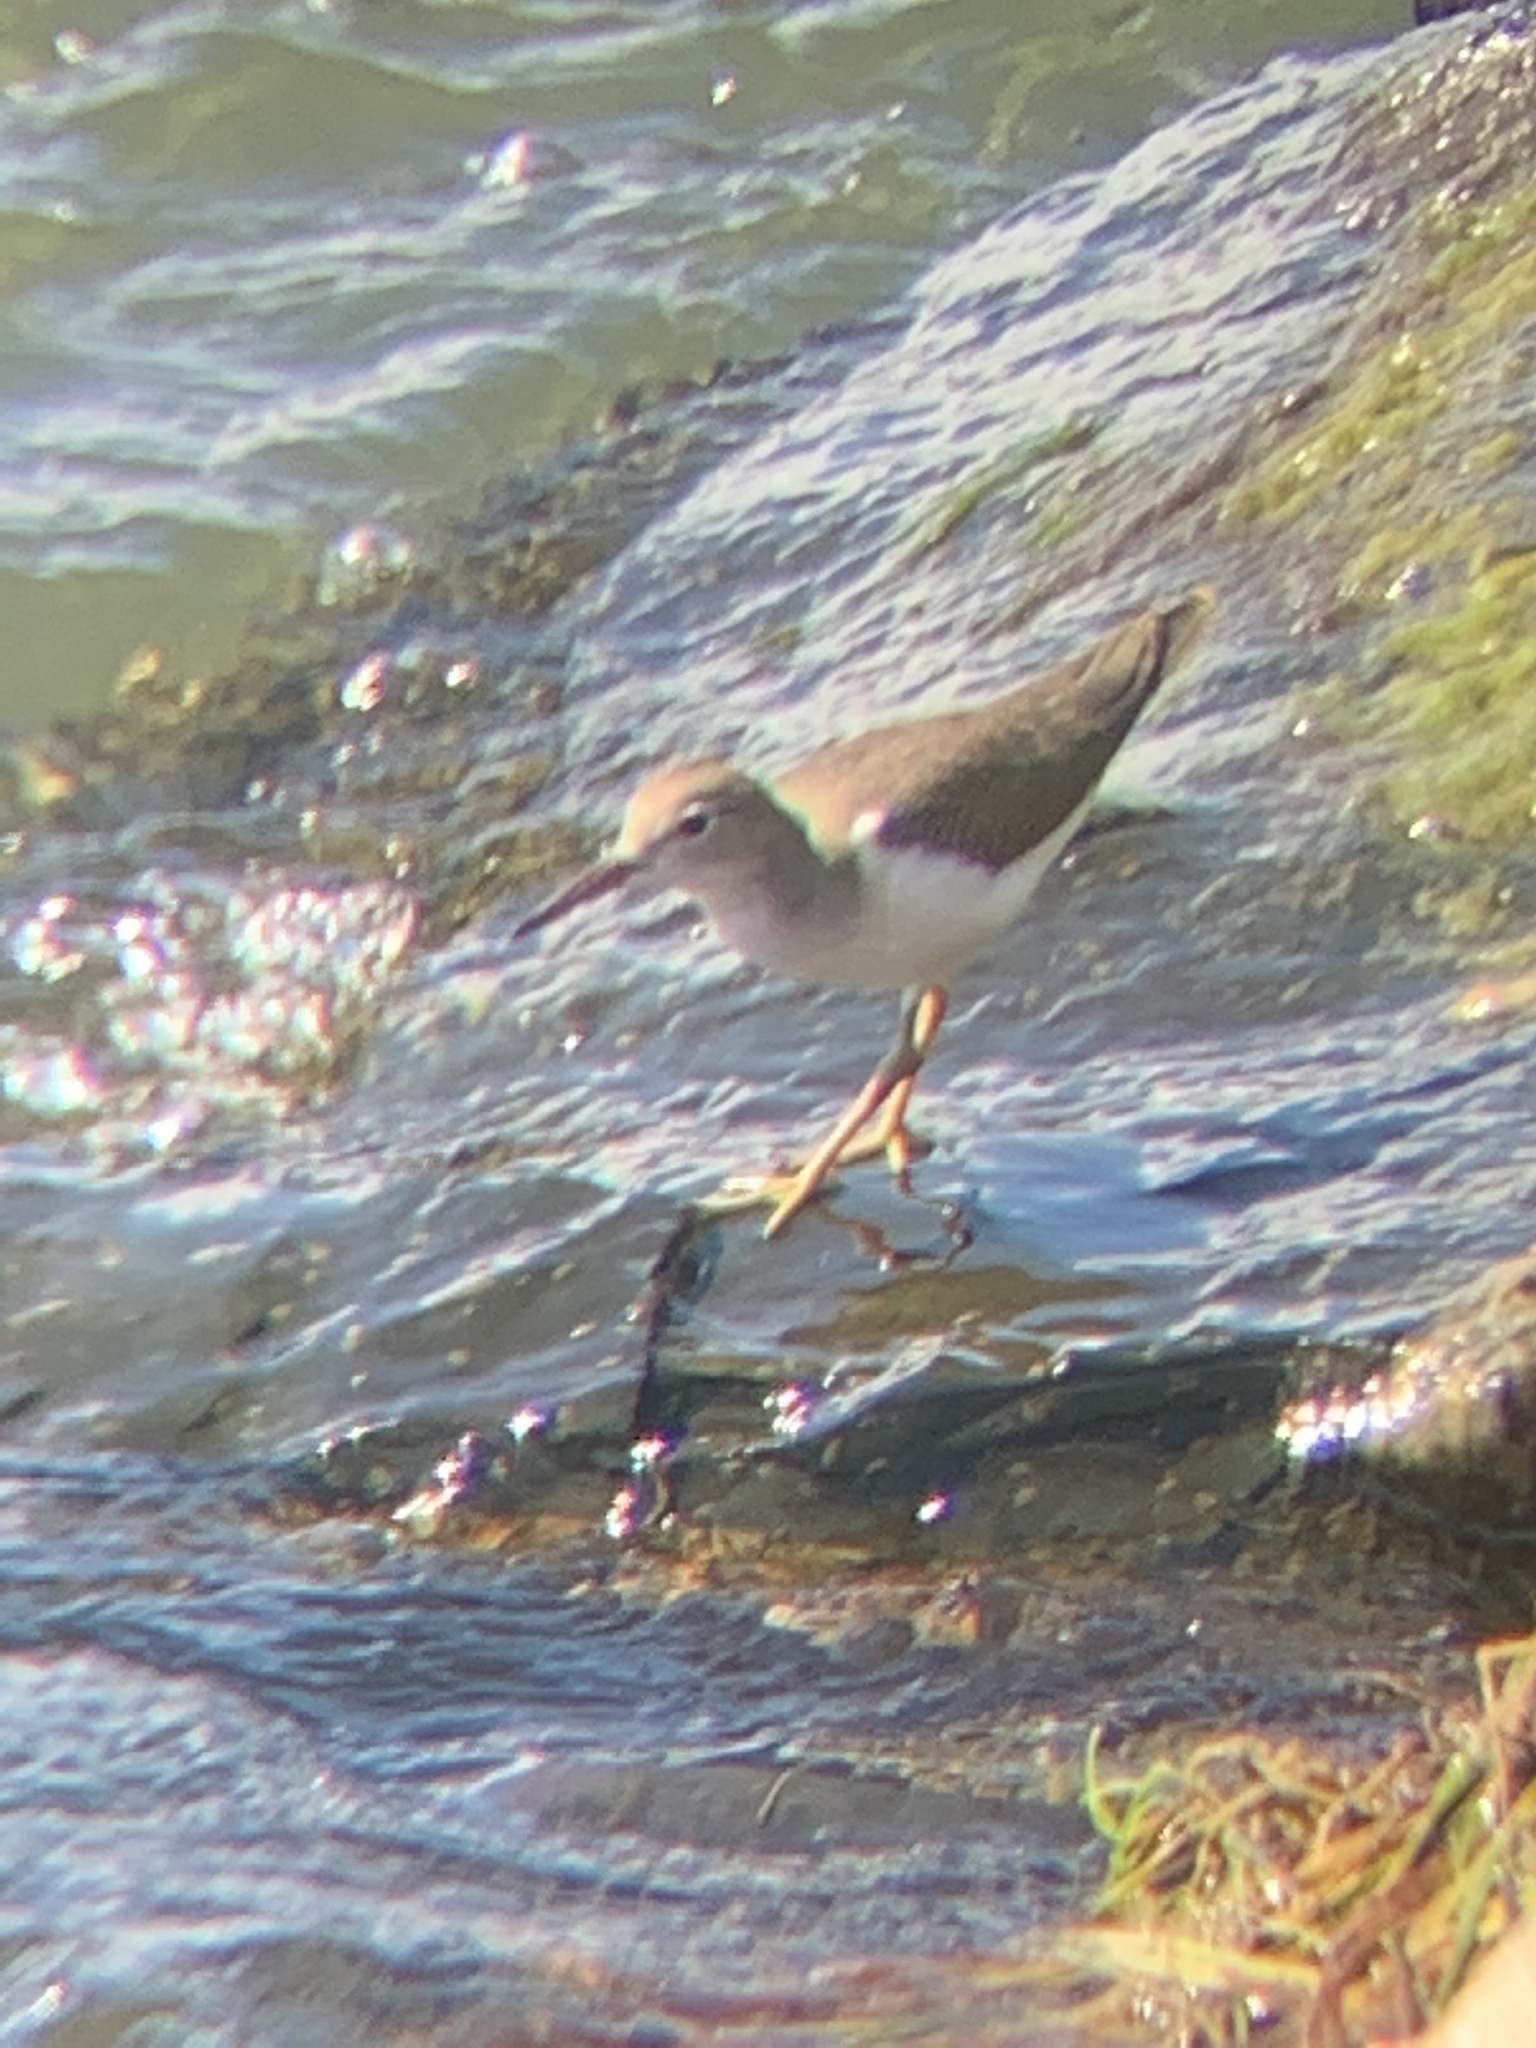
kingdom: Animalia
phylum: Chordata
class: Aves
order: Charadriiformes
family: Scolopacidae
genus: Actitis
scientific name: Actitis macularius
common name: Spotted sandpiper
